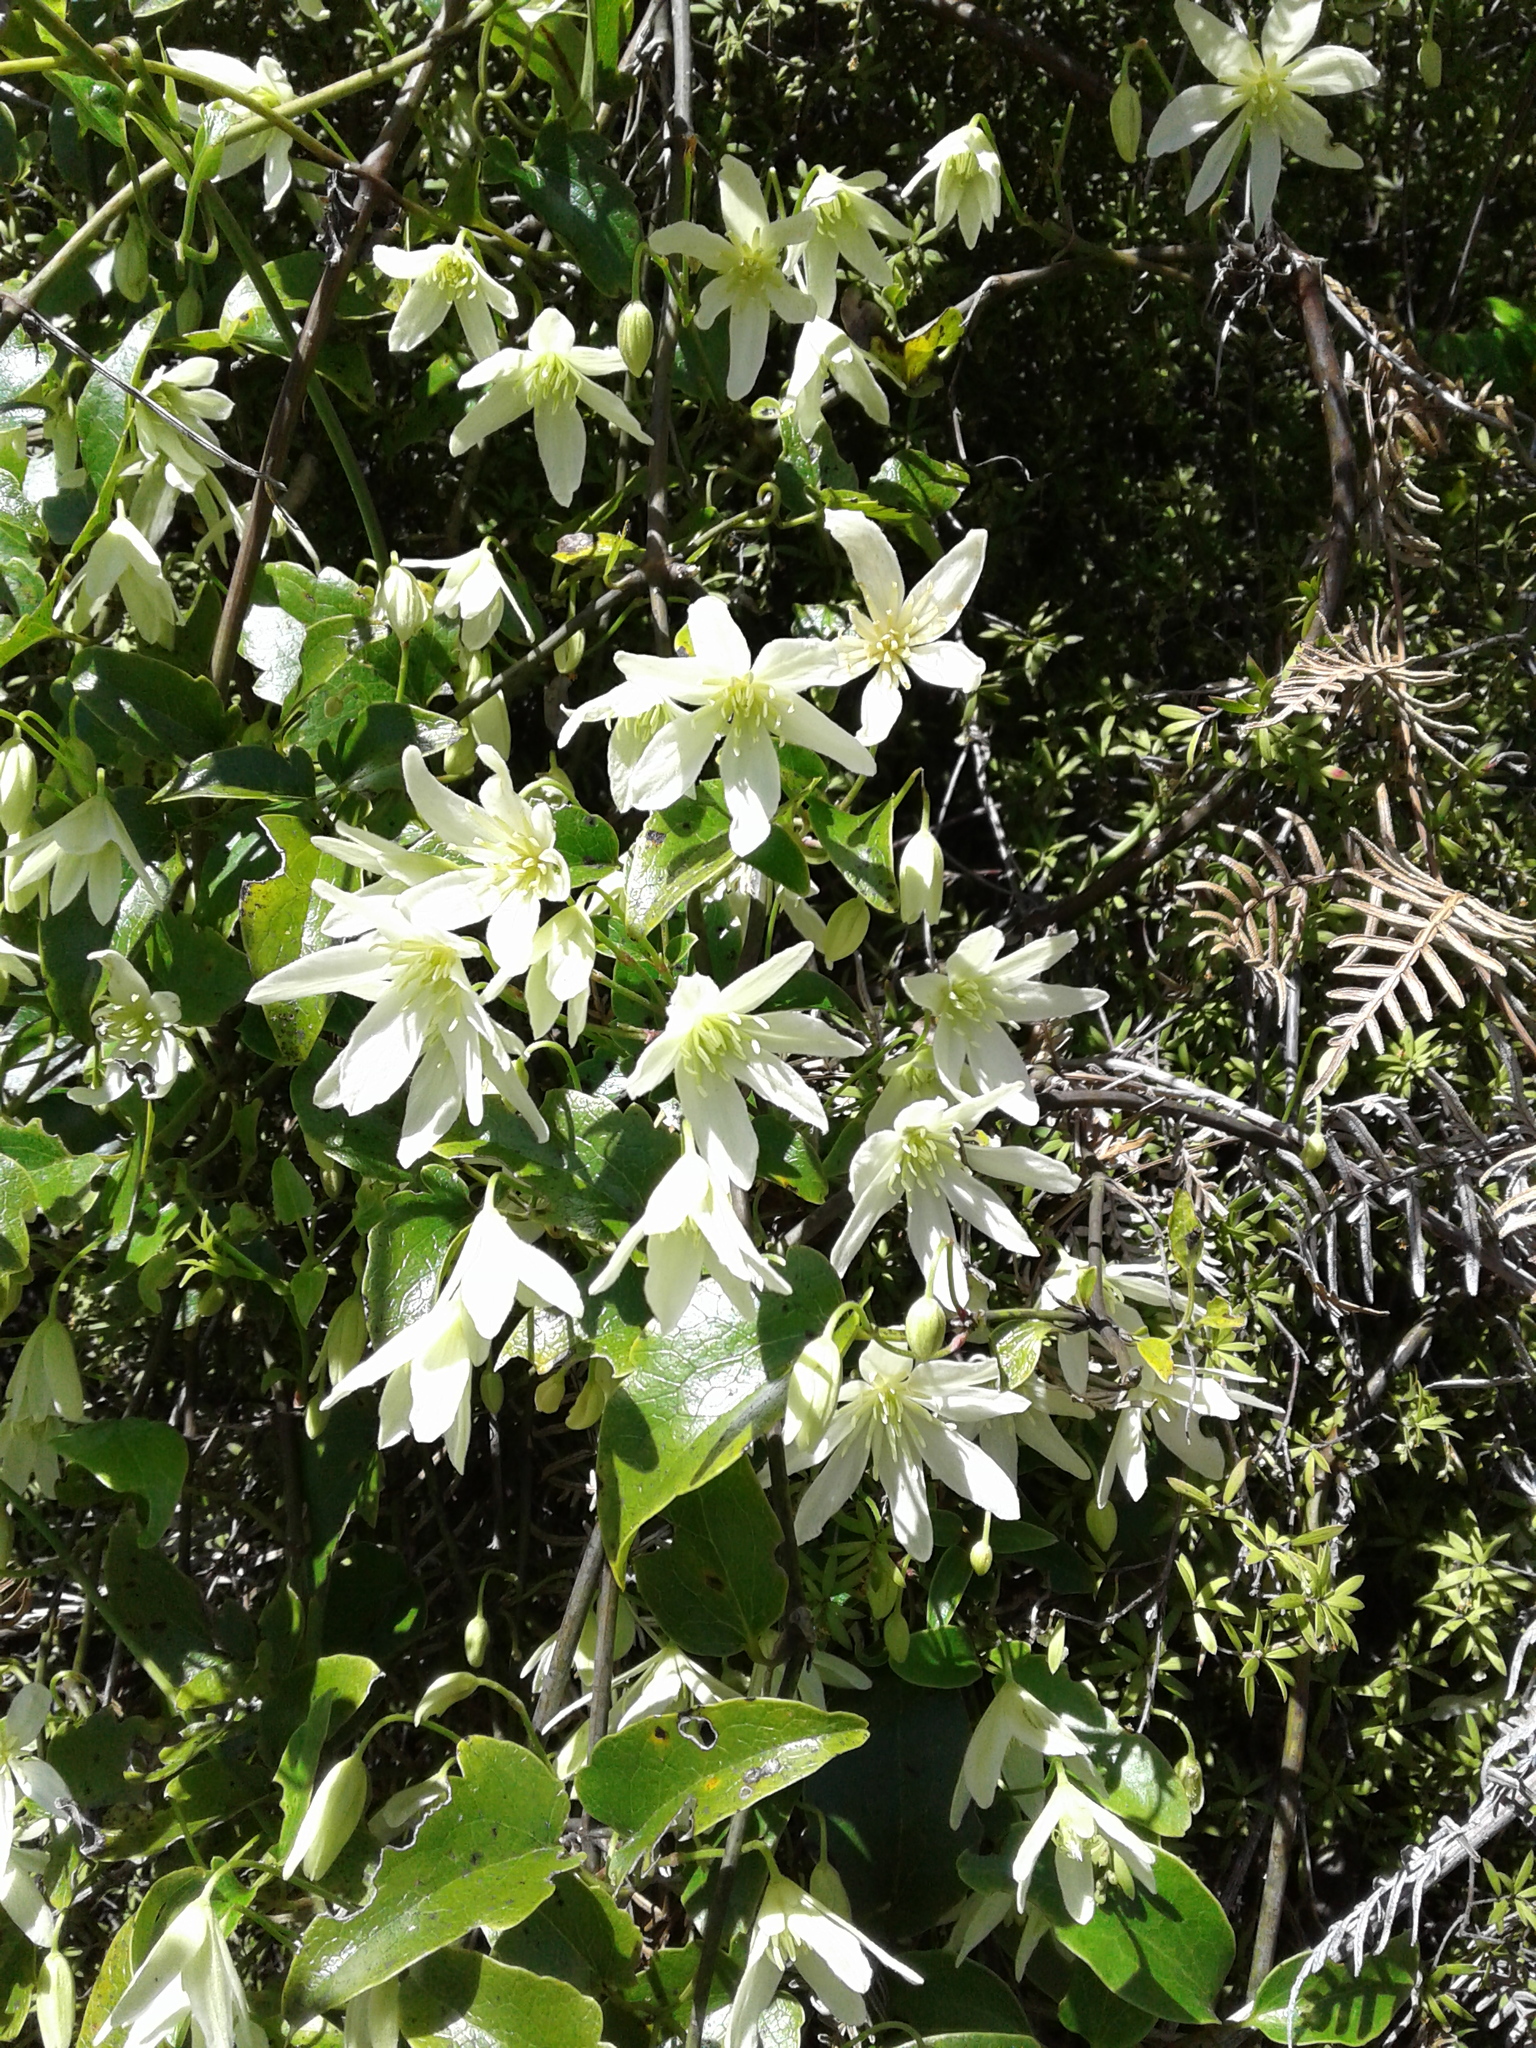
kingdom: Plantae
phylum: Tracheophyta
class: Magnoliopsida
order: Ranunculales
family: Ranunculaceae
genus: Clematis
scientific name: Clematis forsteri
